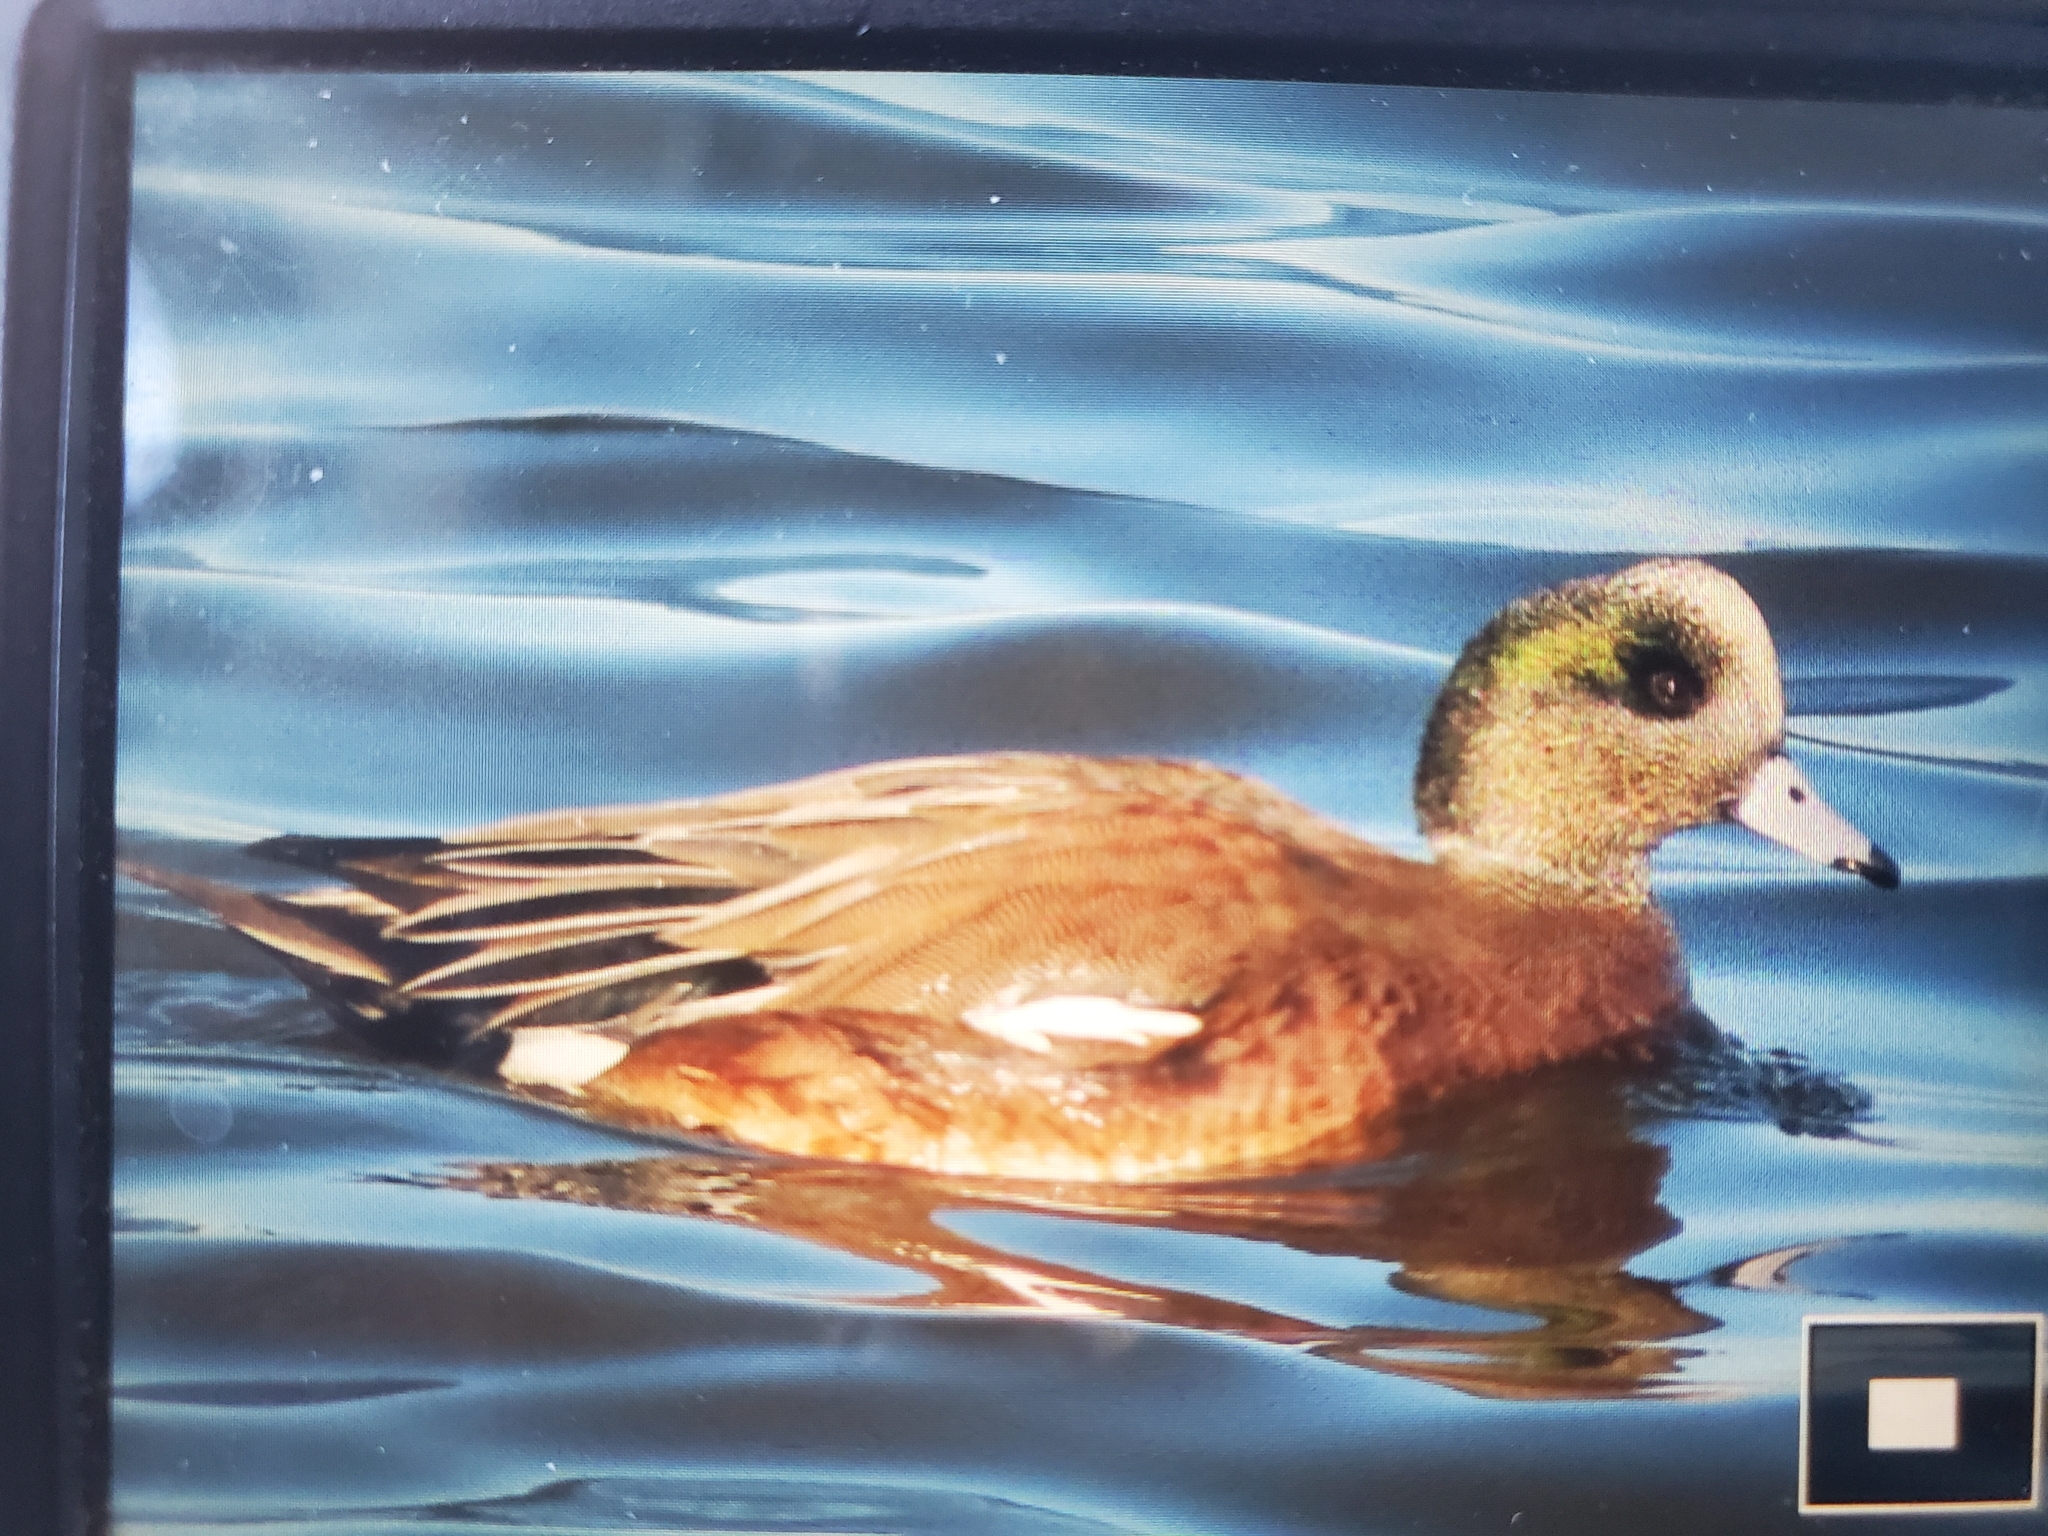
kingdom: Animalia
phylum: Chordata
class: Aves
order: Anseriformes
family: Anatidae
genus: Mareca
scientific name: Mareca americana
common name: American wigeon
